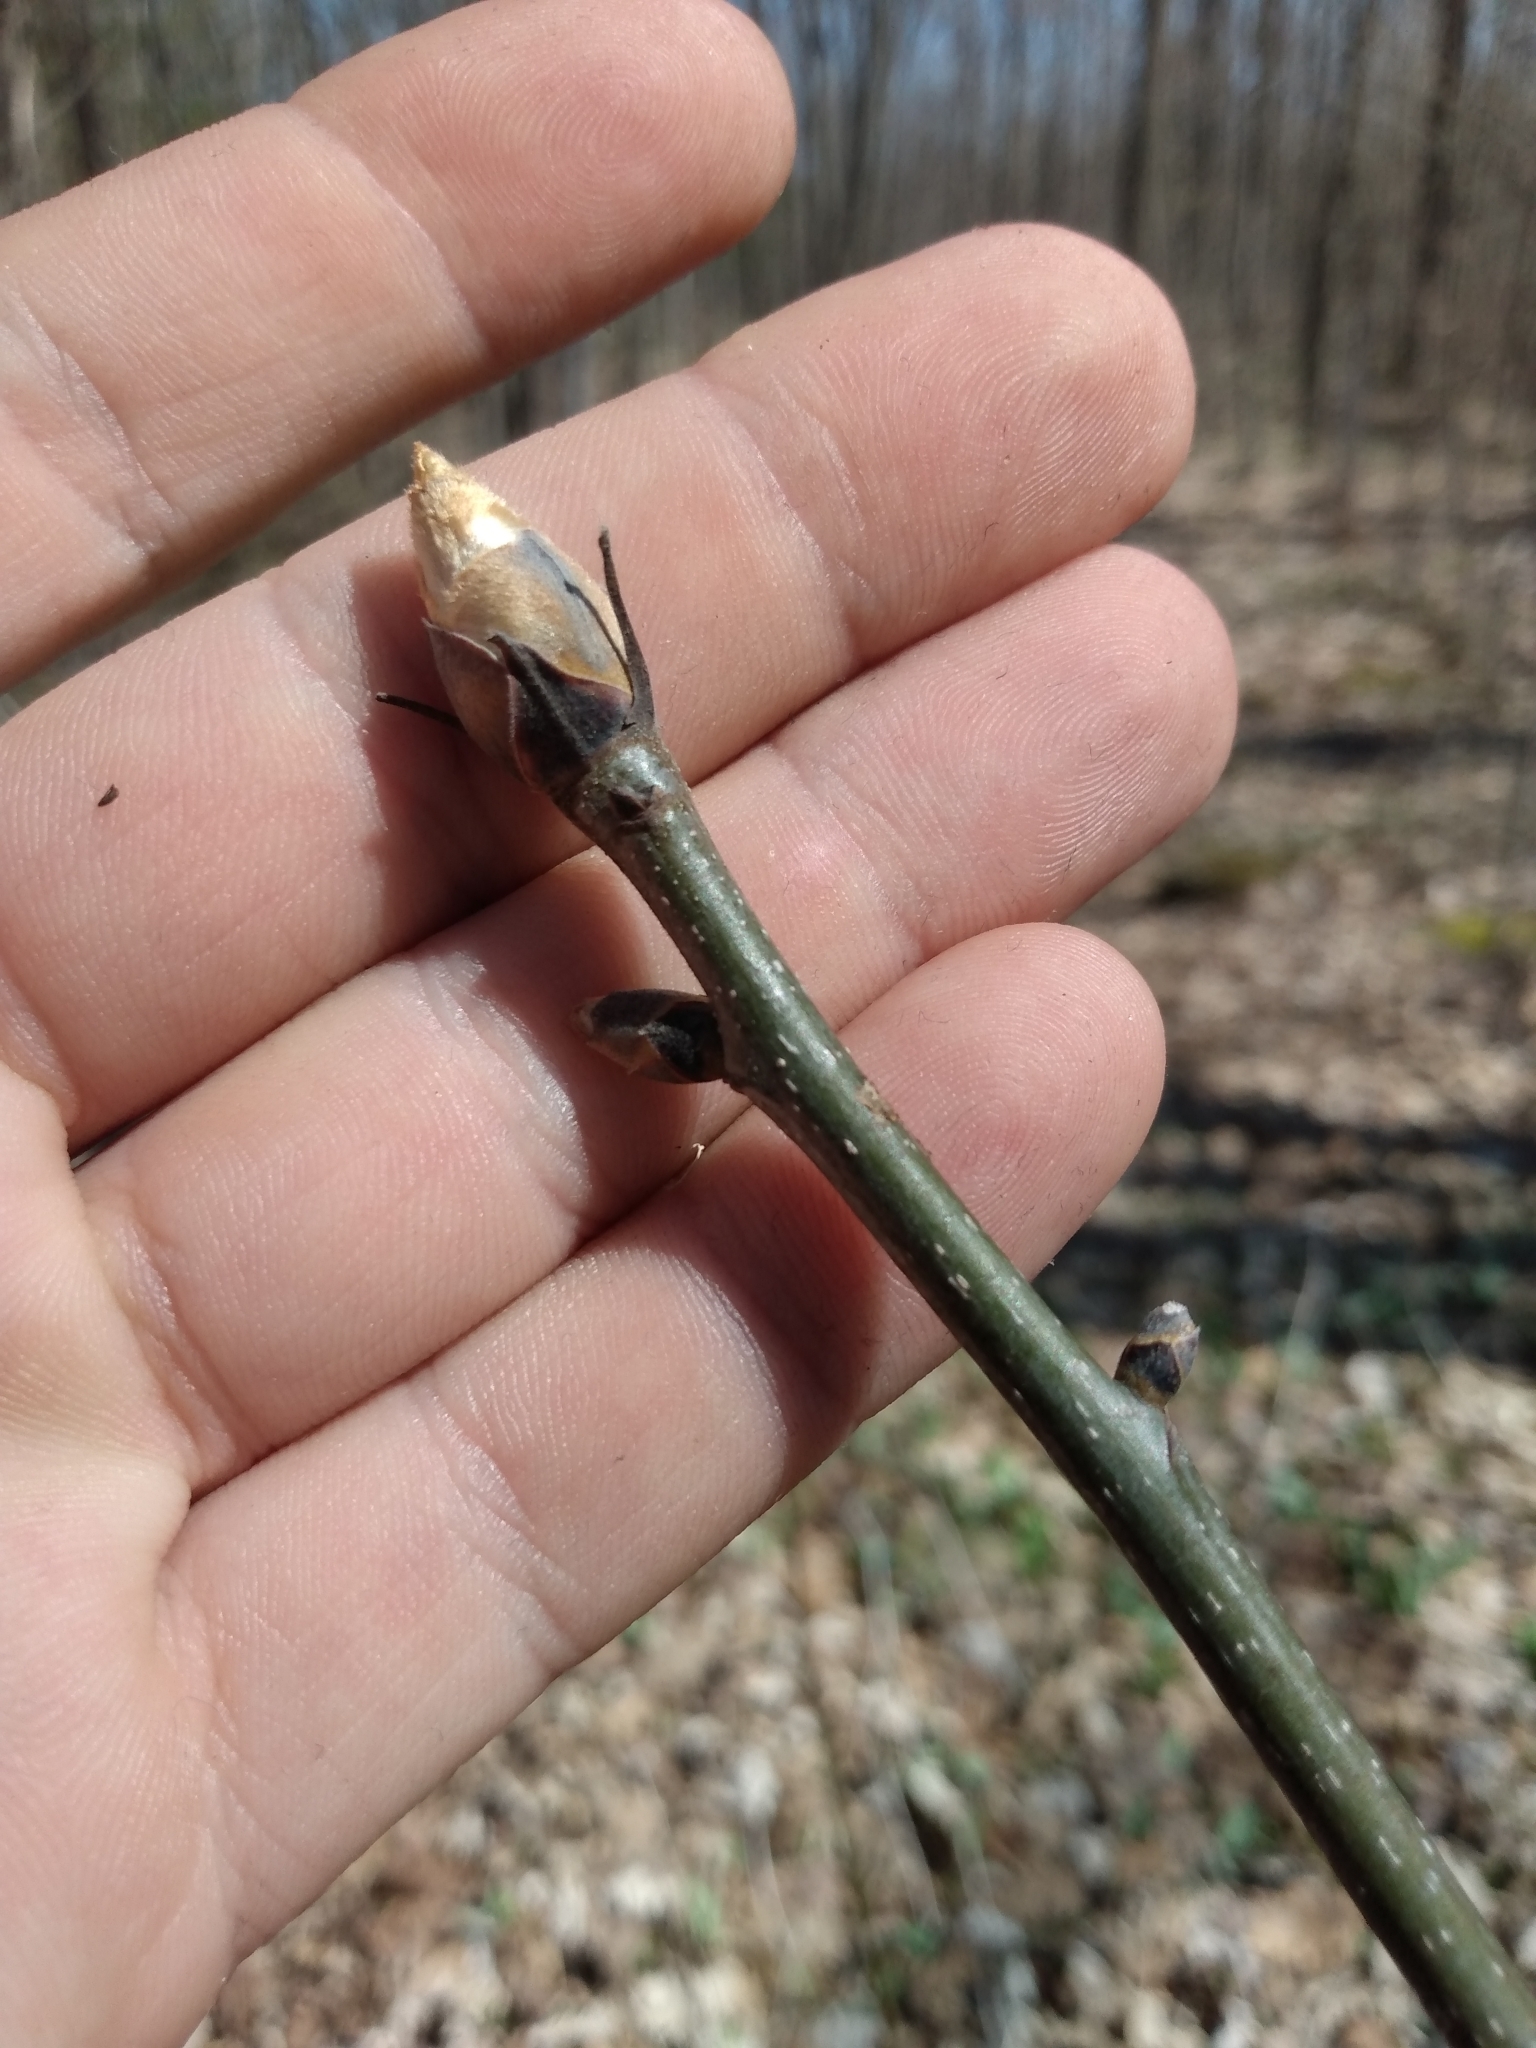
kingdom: Plantae
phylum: Tracheophyta
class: Magnoliopsida
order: Fagales
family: Juglandaceae
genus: Carya
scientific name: Carya ovata
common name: Shagbark hickory
